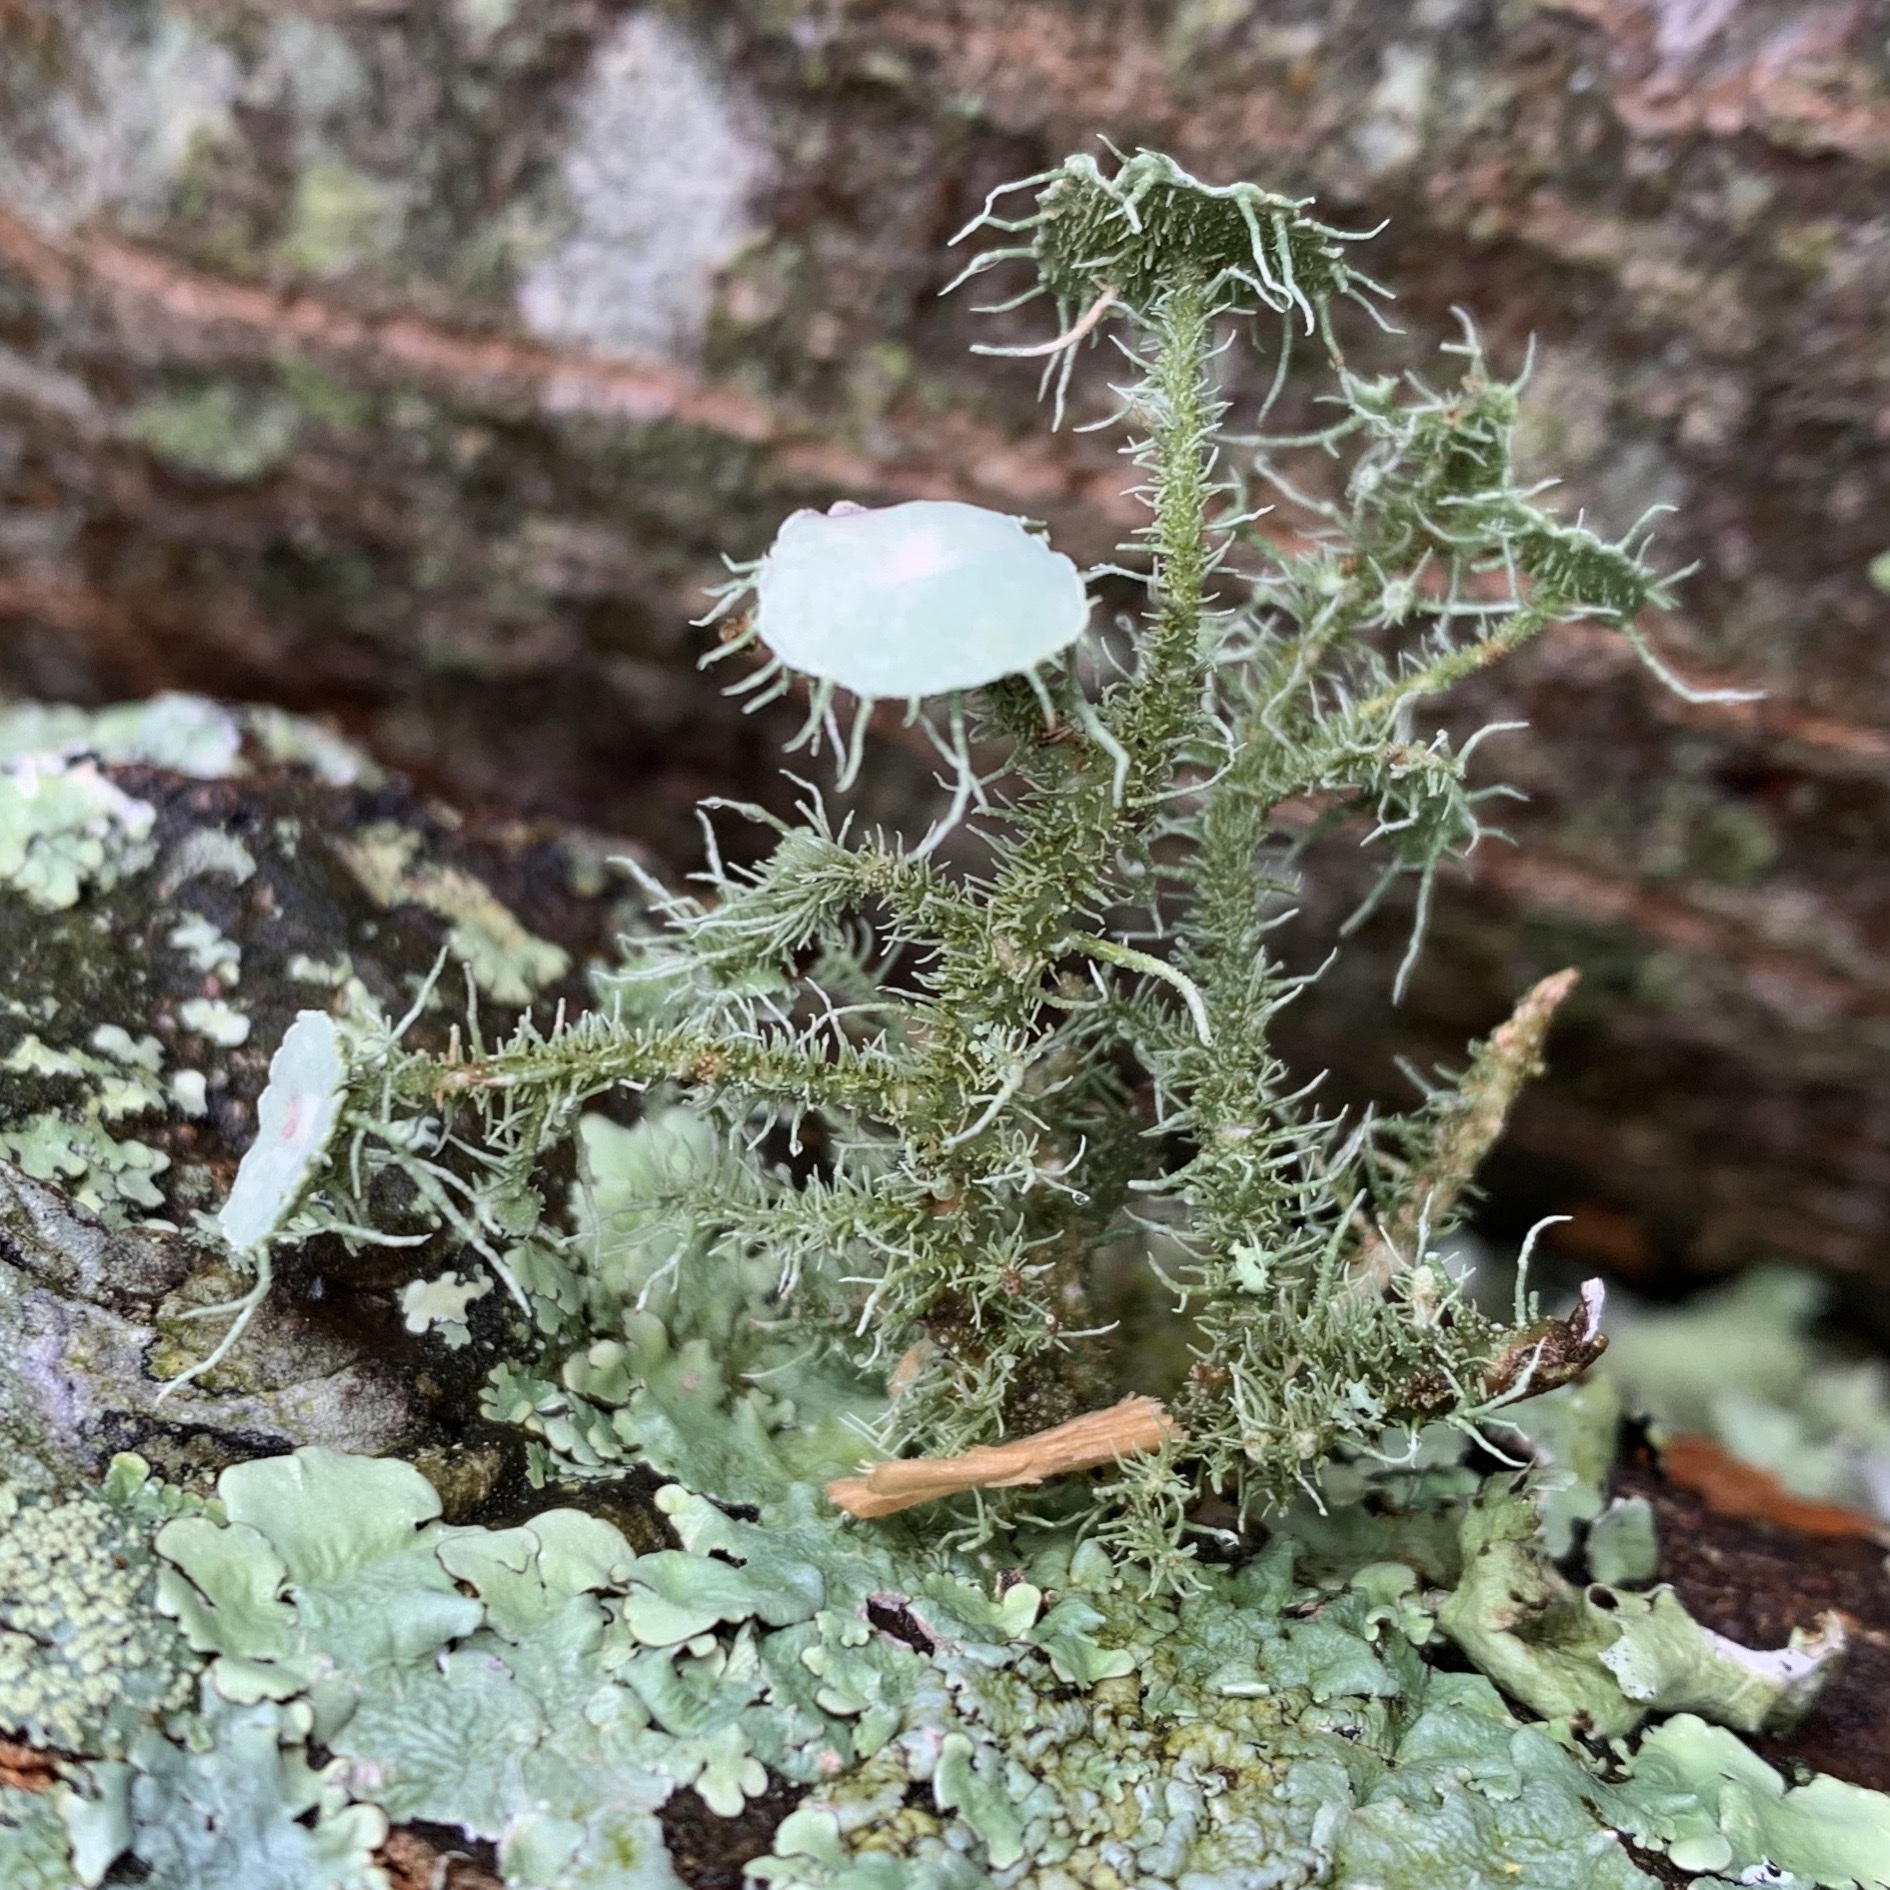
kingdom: Fungi
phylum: Ascomycota
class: Lecanoromycetes
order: Lecanorales
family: Parmeliaceae
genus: Usnea
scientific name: Usnea strigosa
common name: Bushy beard lichen
